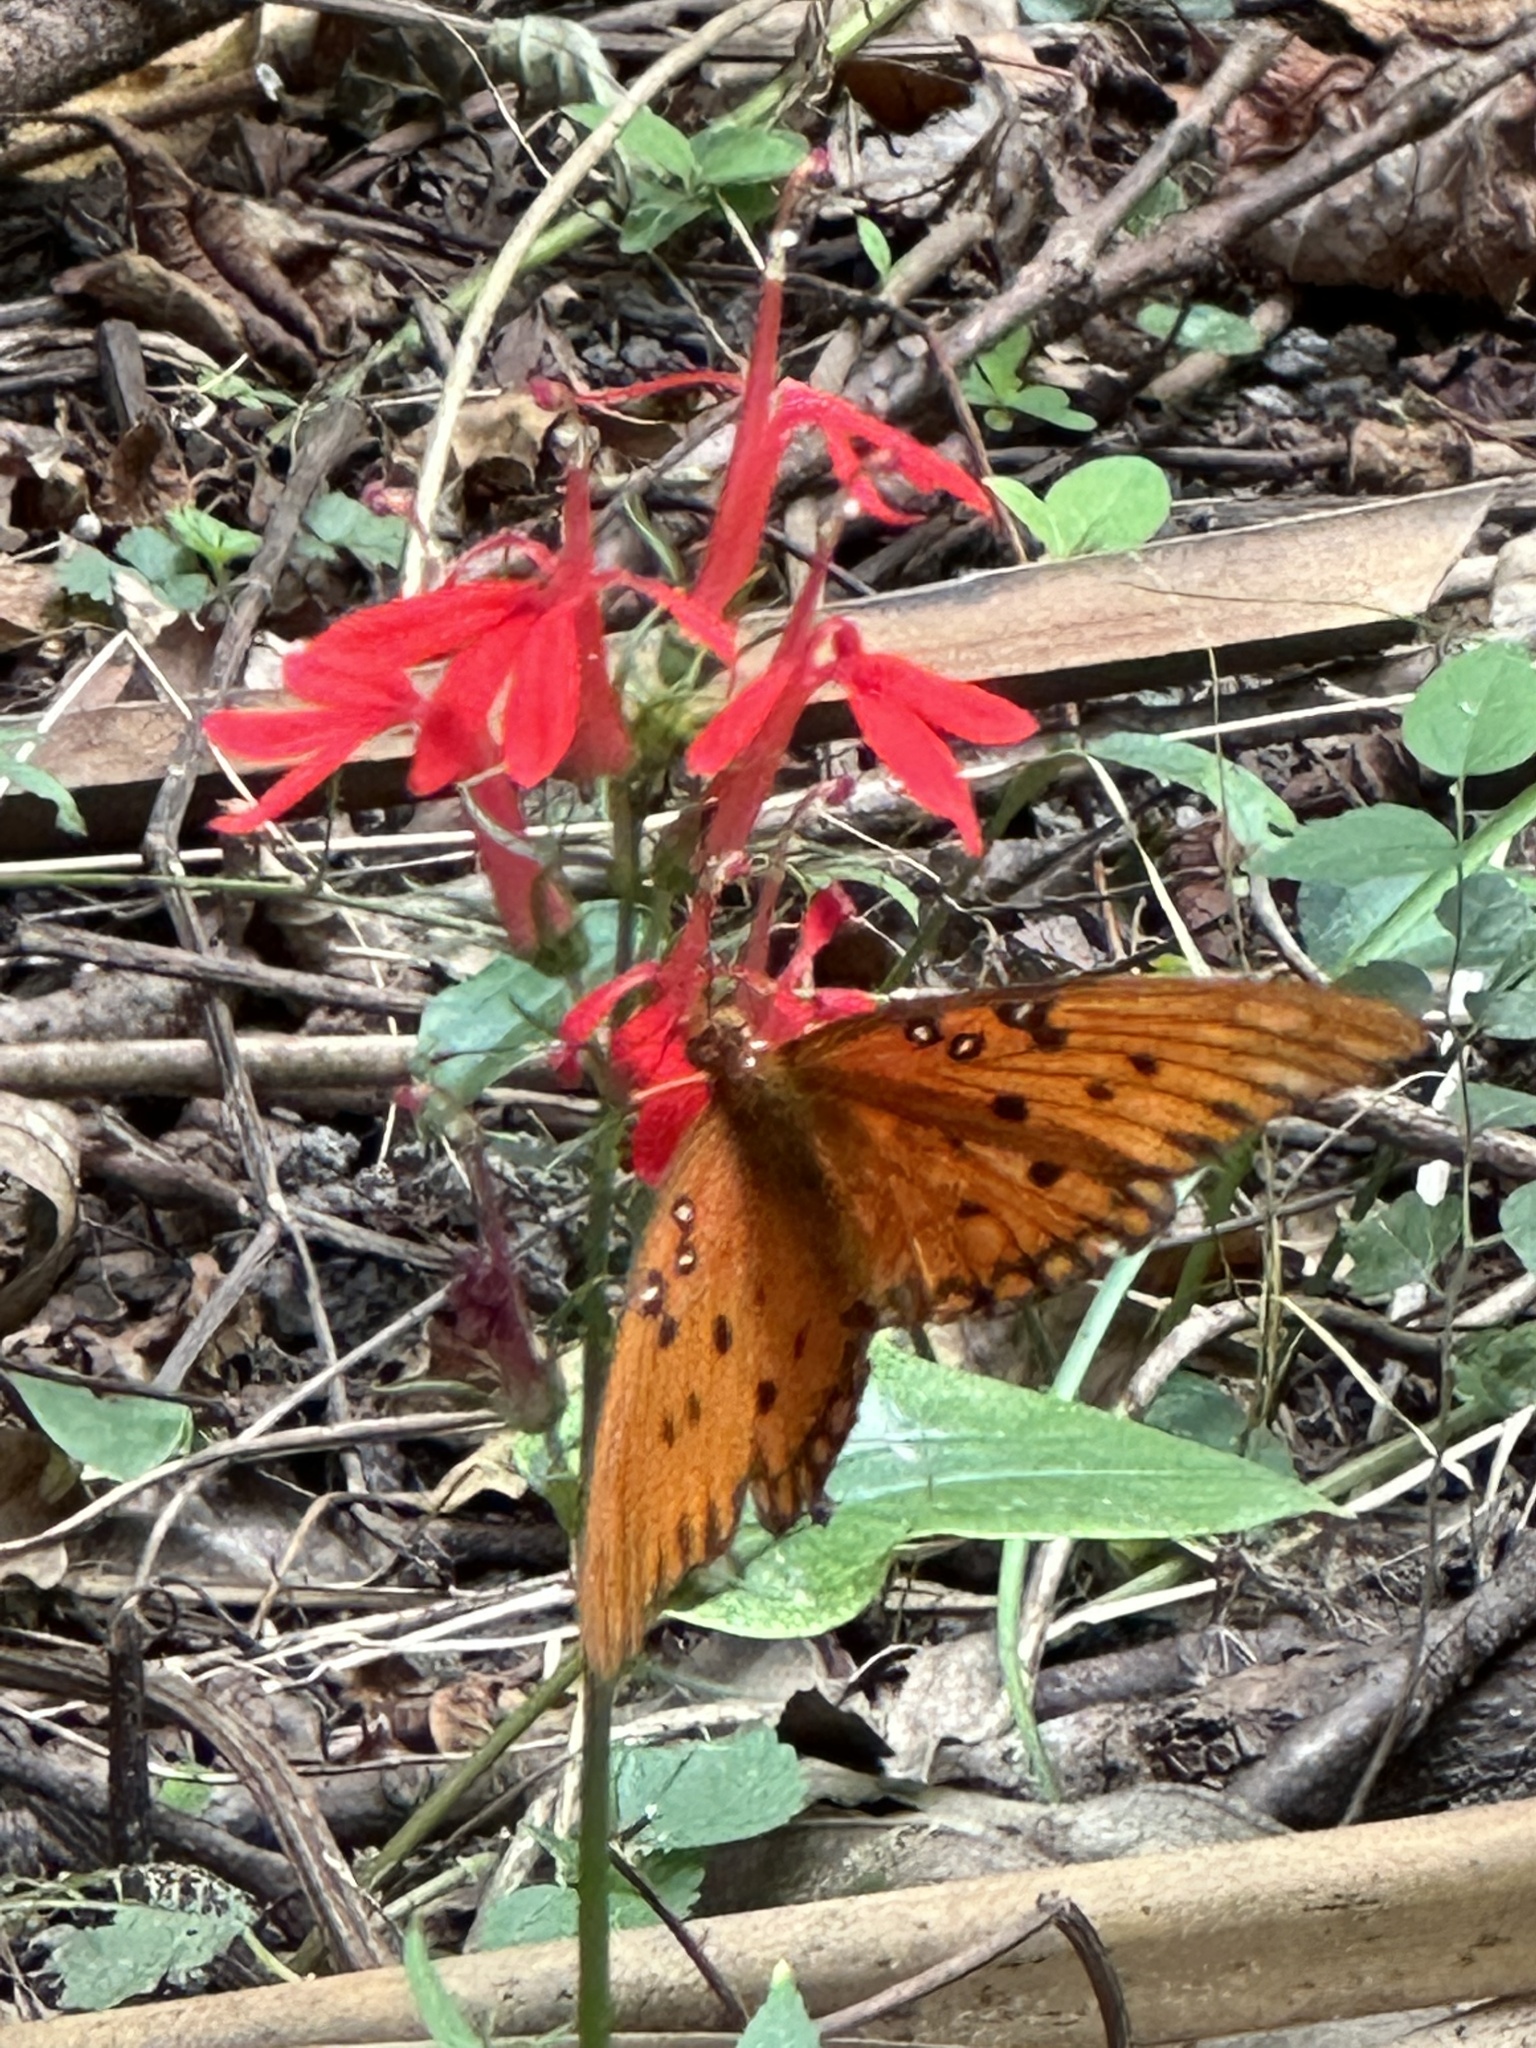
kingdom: Animalia
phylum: Arthropoda
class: Insecta
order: Lepidoptera
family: Nymphalidae
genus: Dione
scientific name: Dione vanillae
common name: Gulf fritillary
